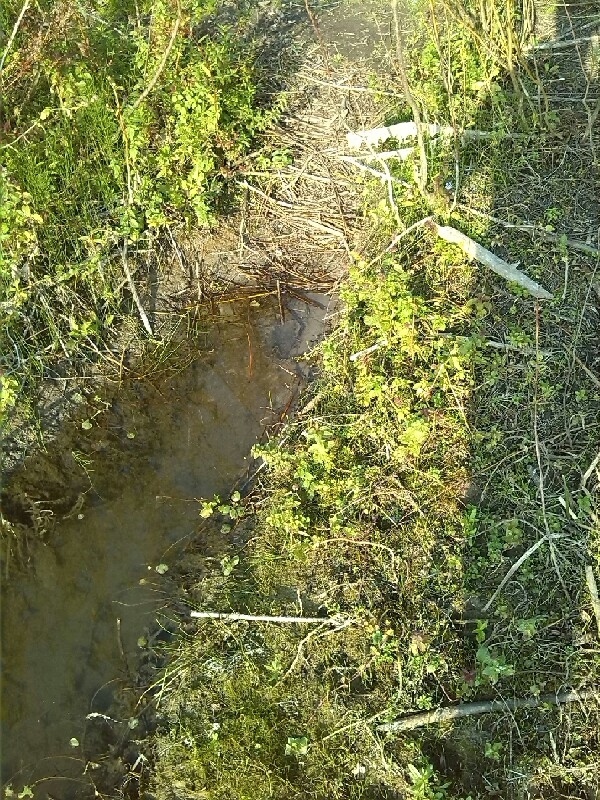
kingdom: Animalia
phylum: Chordata
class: Mammalia
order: Rodentia
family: Castoridae
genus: Castor
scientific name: Castor fiber
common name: Eurasian beaver
